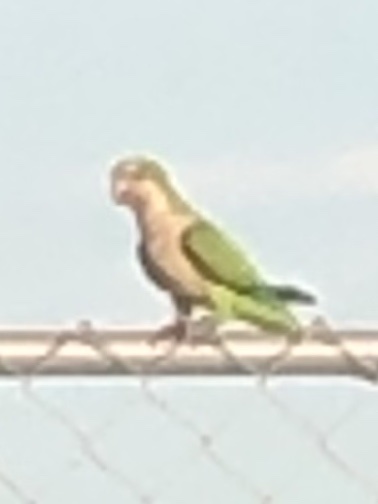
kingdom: Animalia
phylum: Chordata
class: Aves
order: Psittaciformes
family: Psittacidae
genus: Myiopsitta
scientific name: Myiopsitta monachus
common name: Monk parakeet
